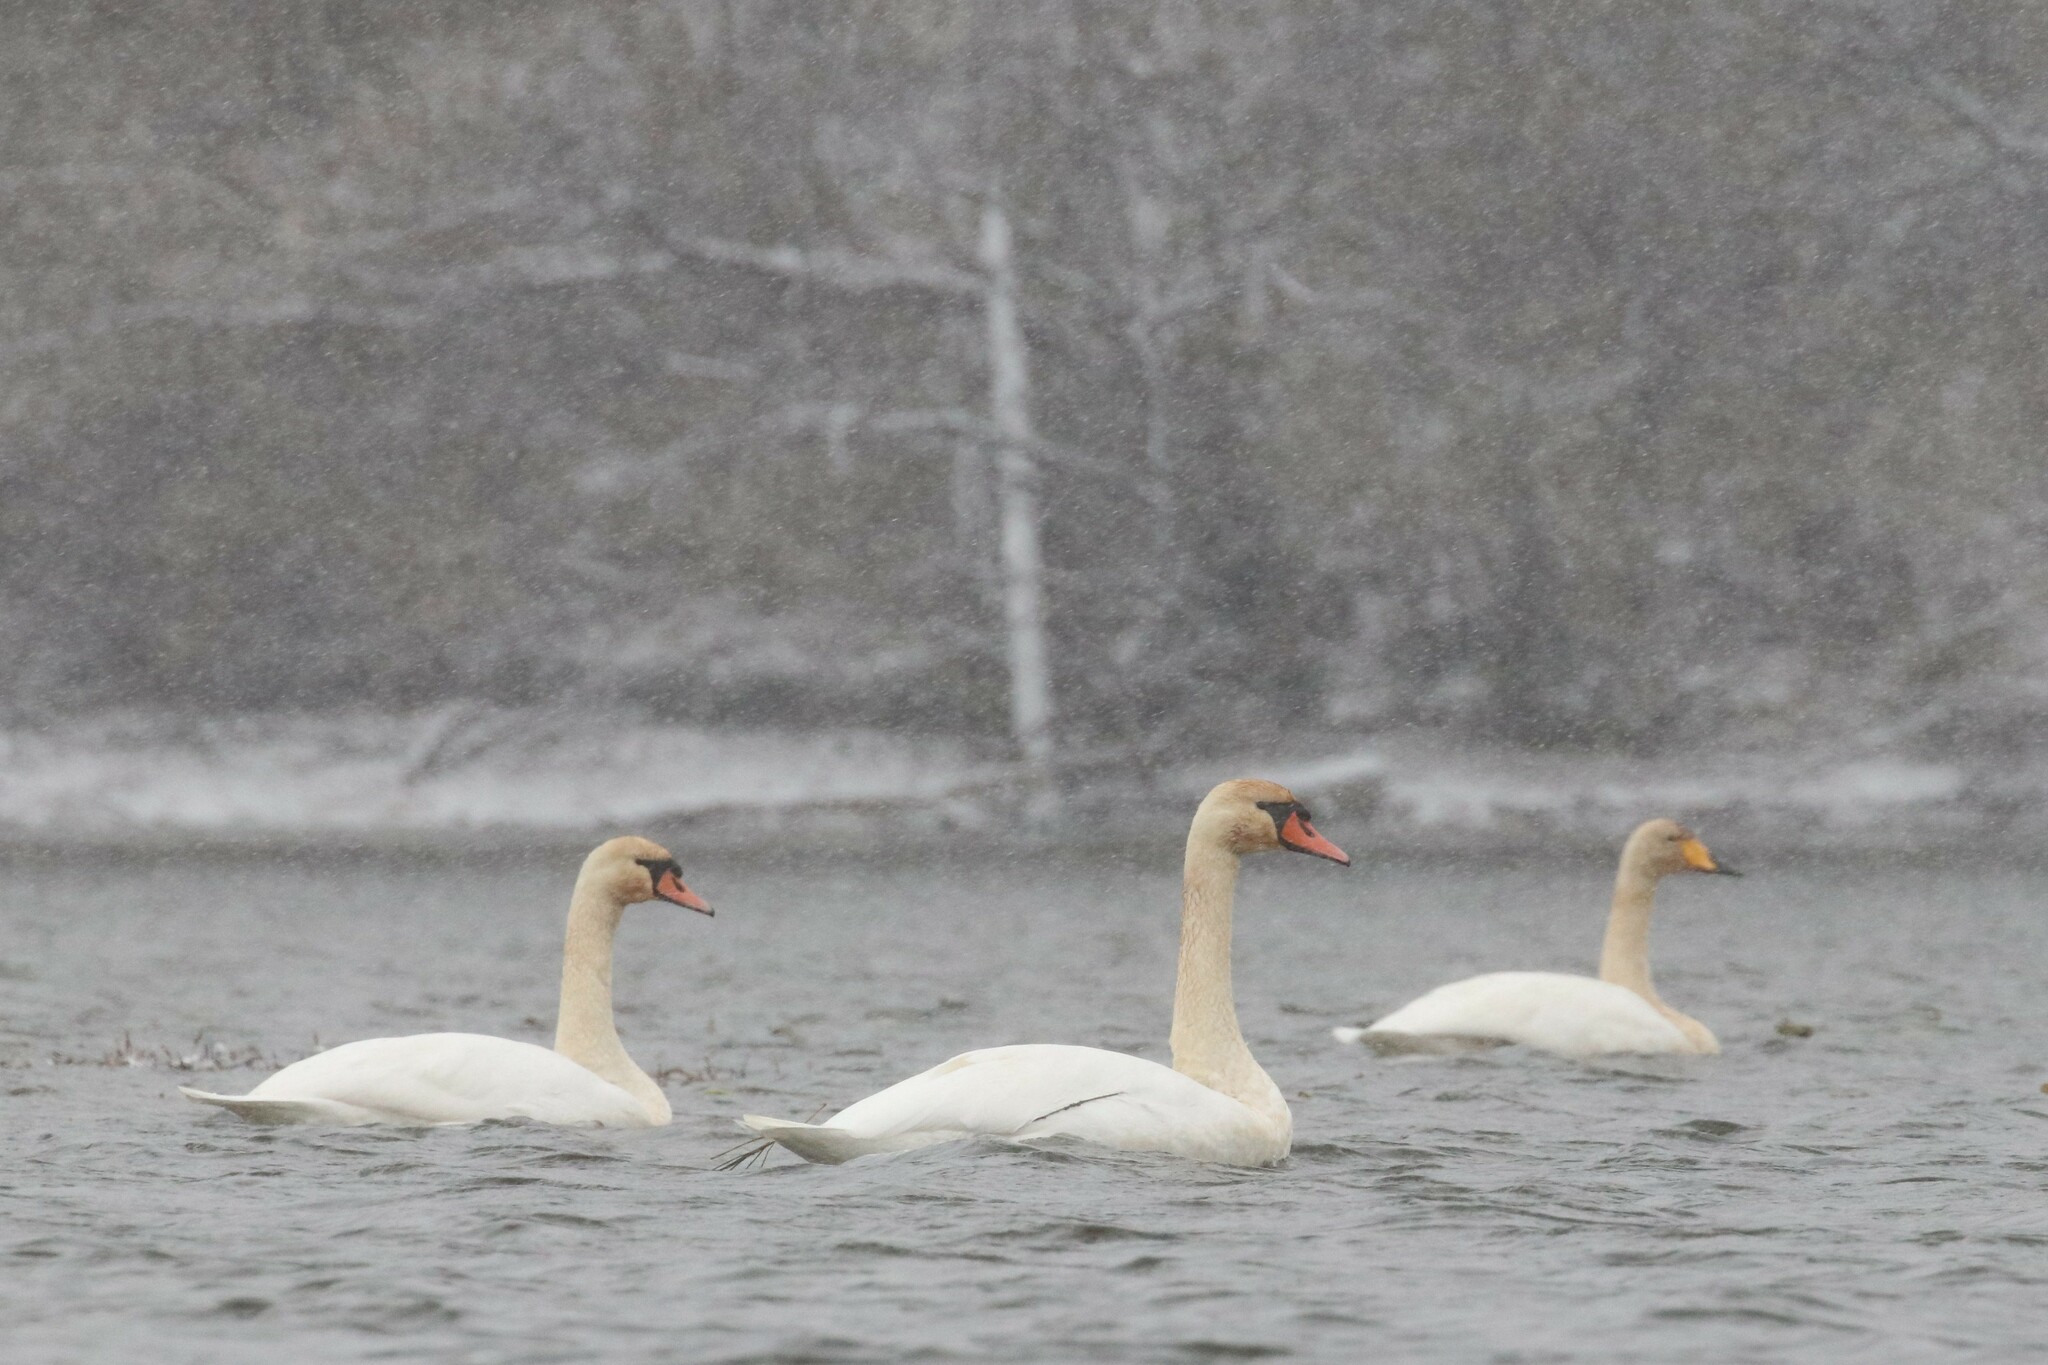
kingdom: Animalia
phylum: Chordata
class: Aves
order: Anseriformes
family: Anatidae
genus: Cygnus
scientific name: Cygnus olor
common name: Mute swan
